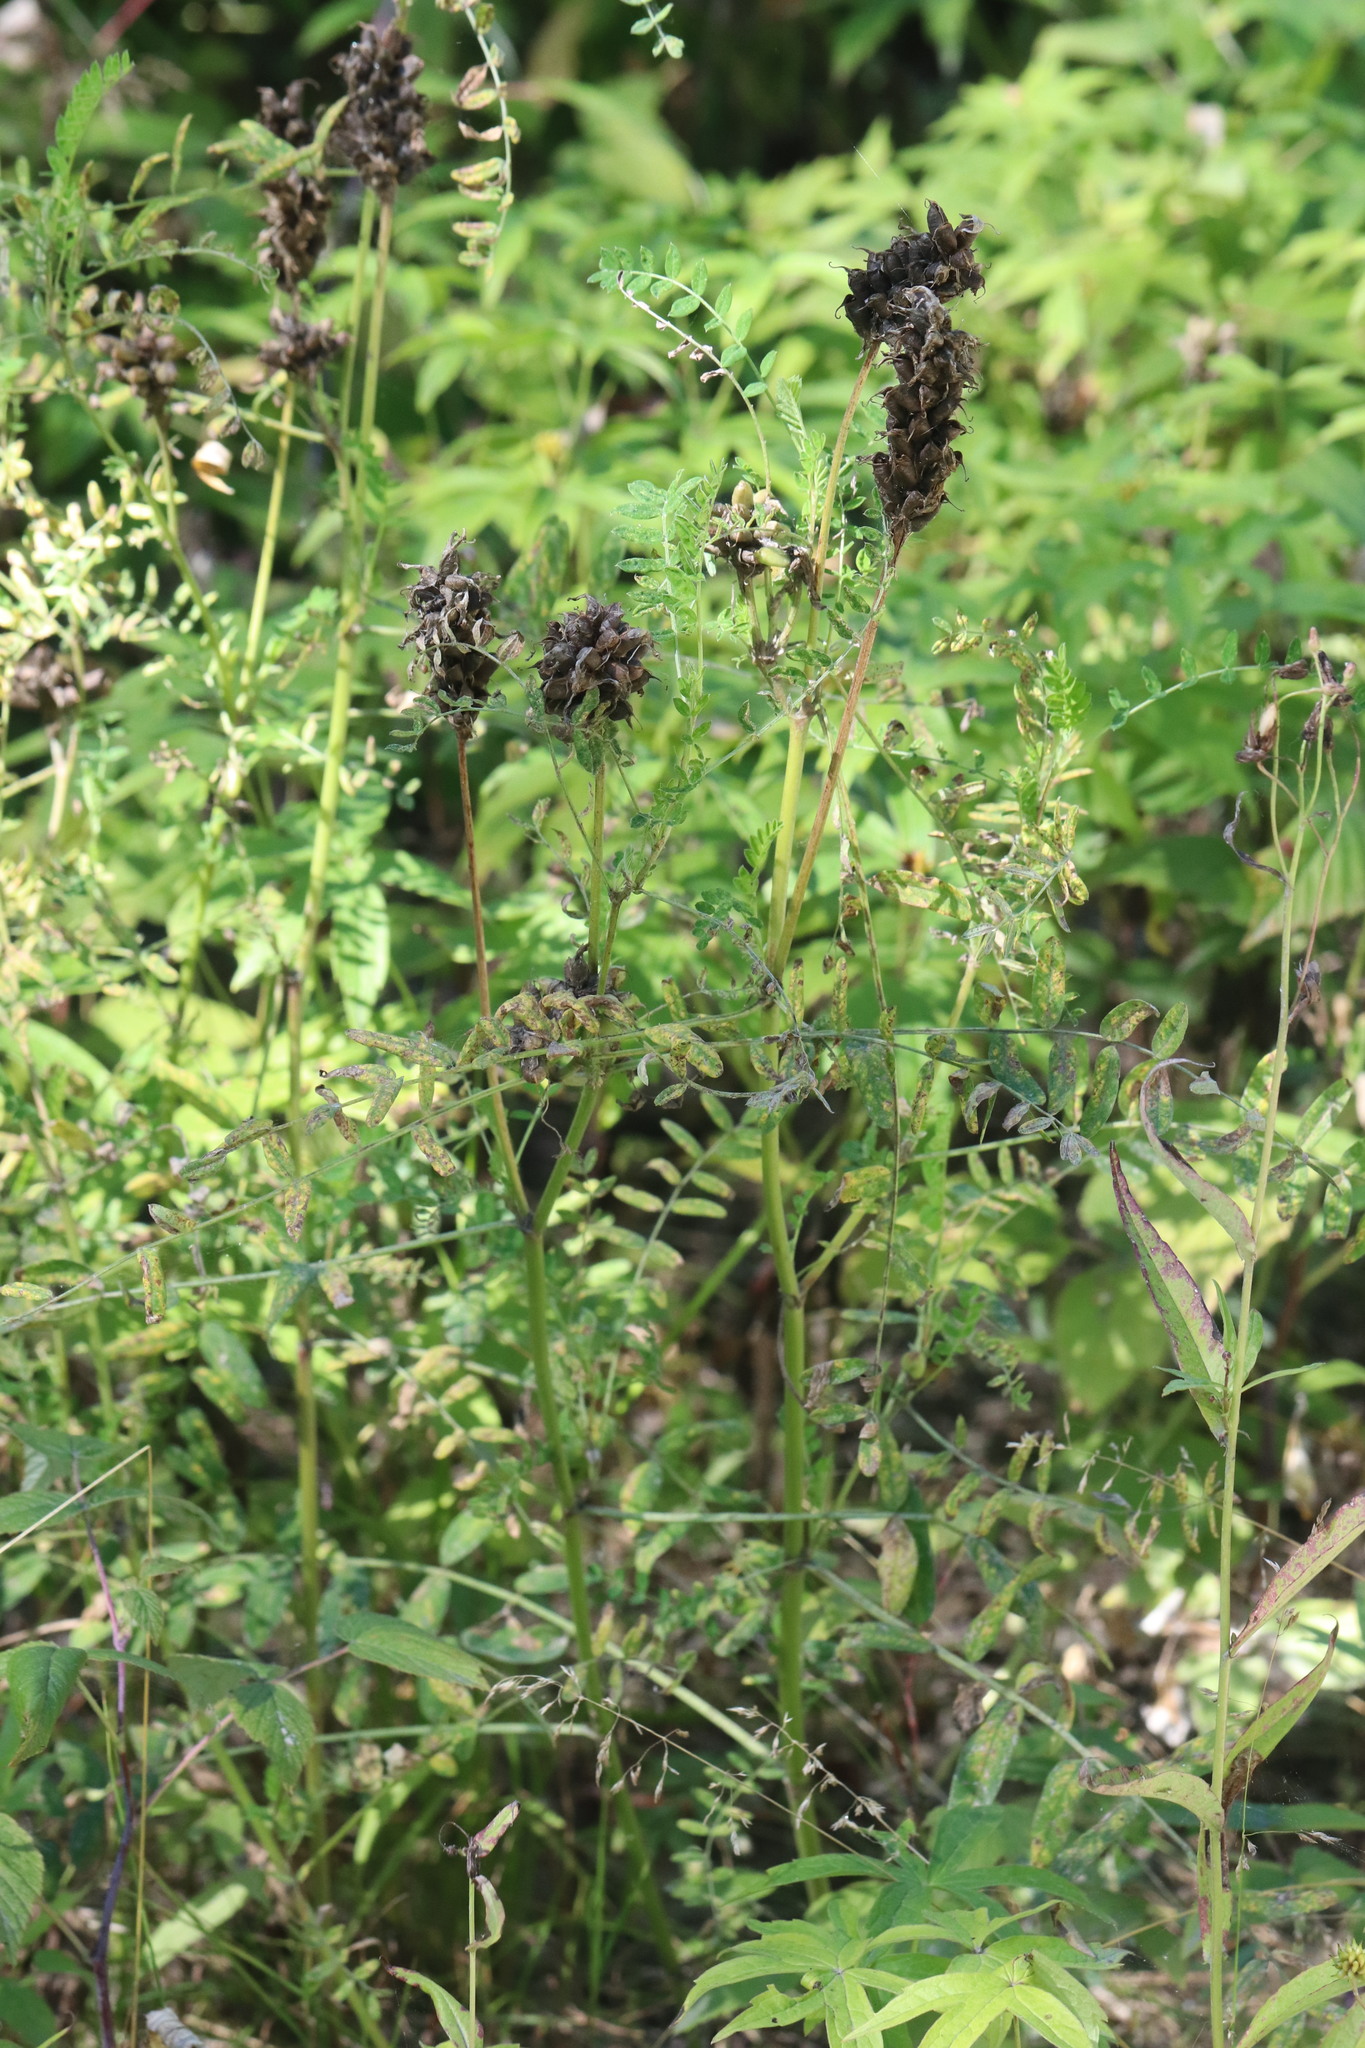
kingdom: Plantae
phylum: Tracheophyta
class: Magnoliopsida
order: Fabales
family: Fabaceae
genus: Astragalus
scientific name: Astragalus uliginosus
